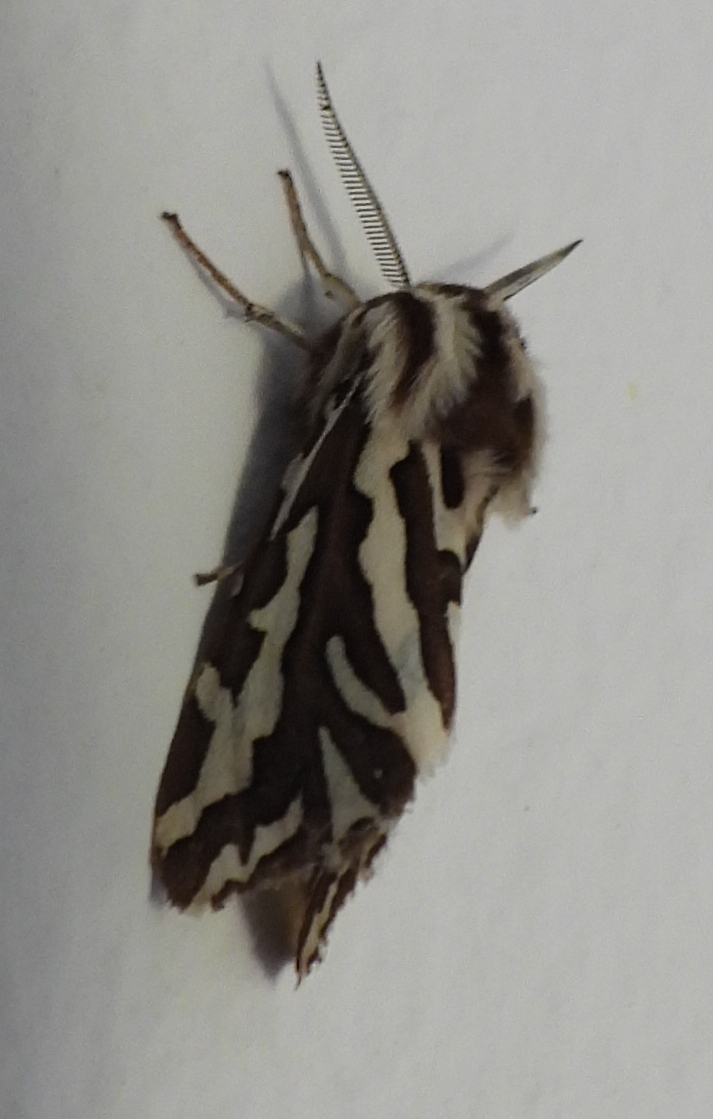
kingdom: Animalia
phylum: Arthropoda
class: Insecta
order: Lepidoptera
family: Erebidae
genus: Paralacydes
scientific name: Paralacydes vocula
